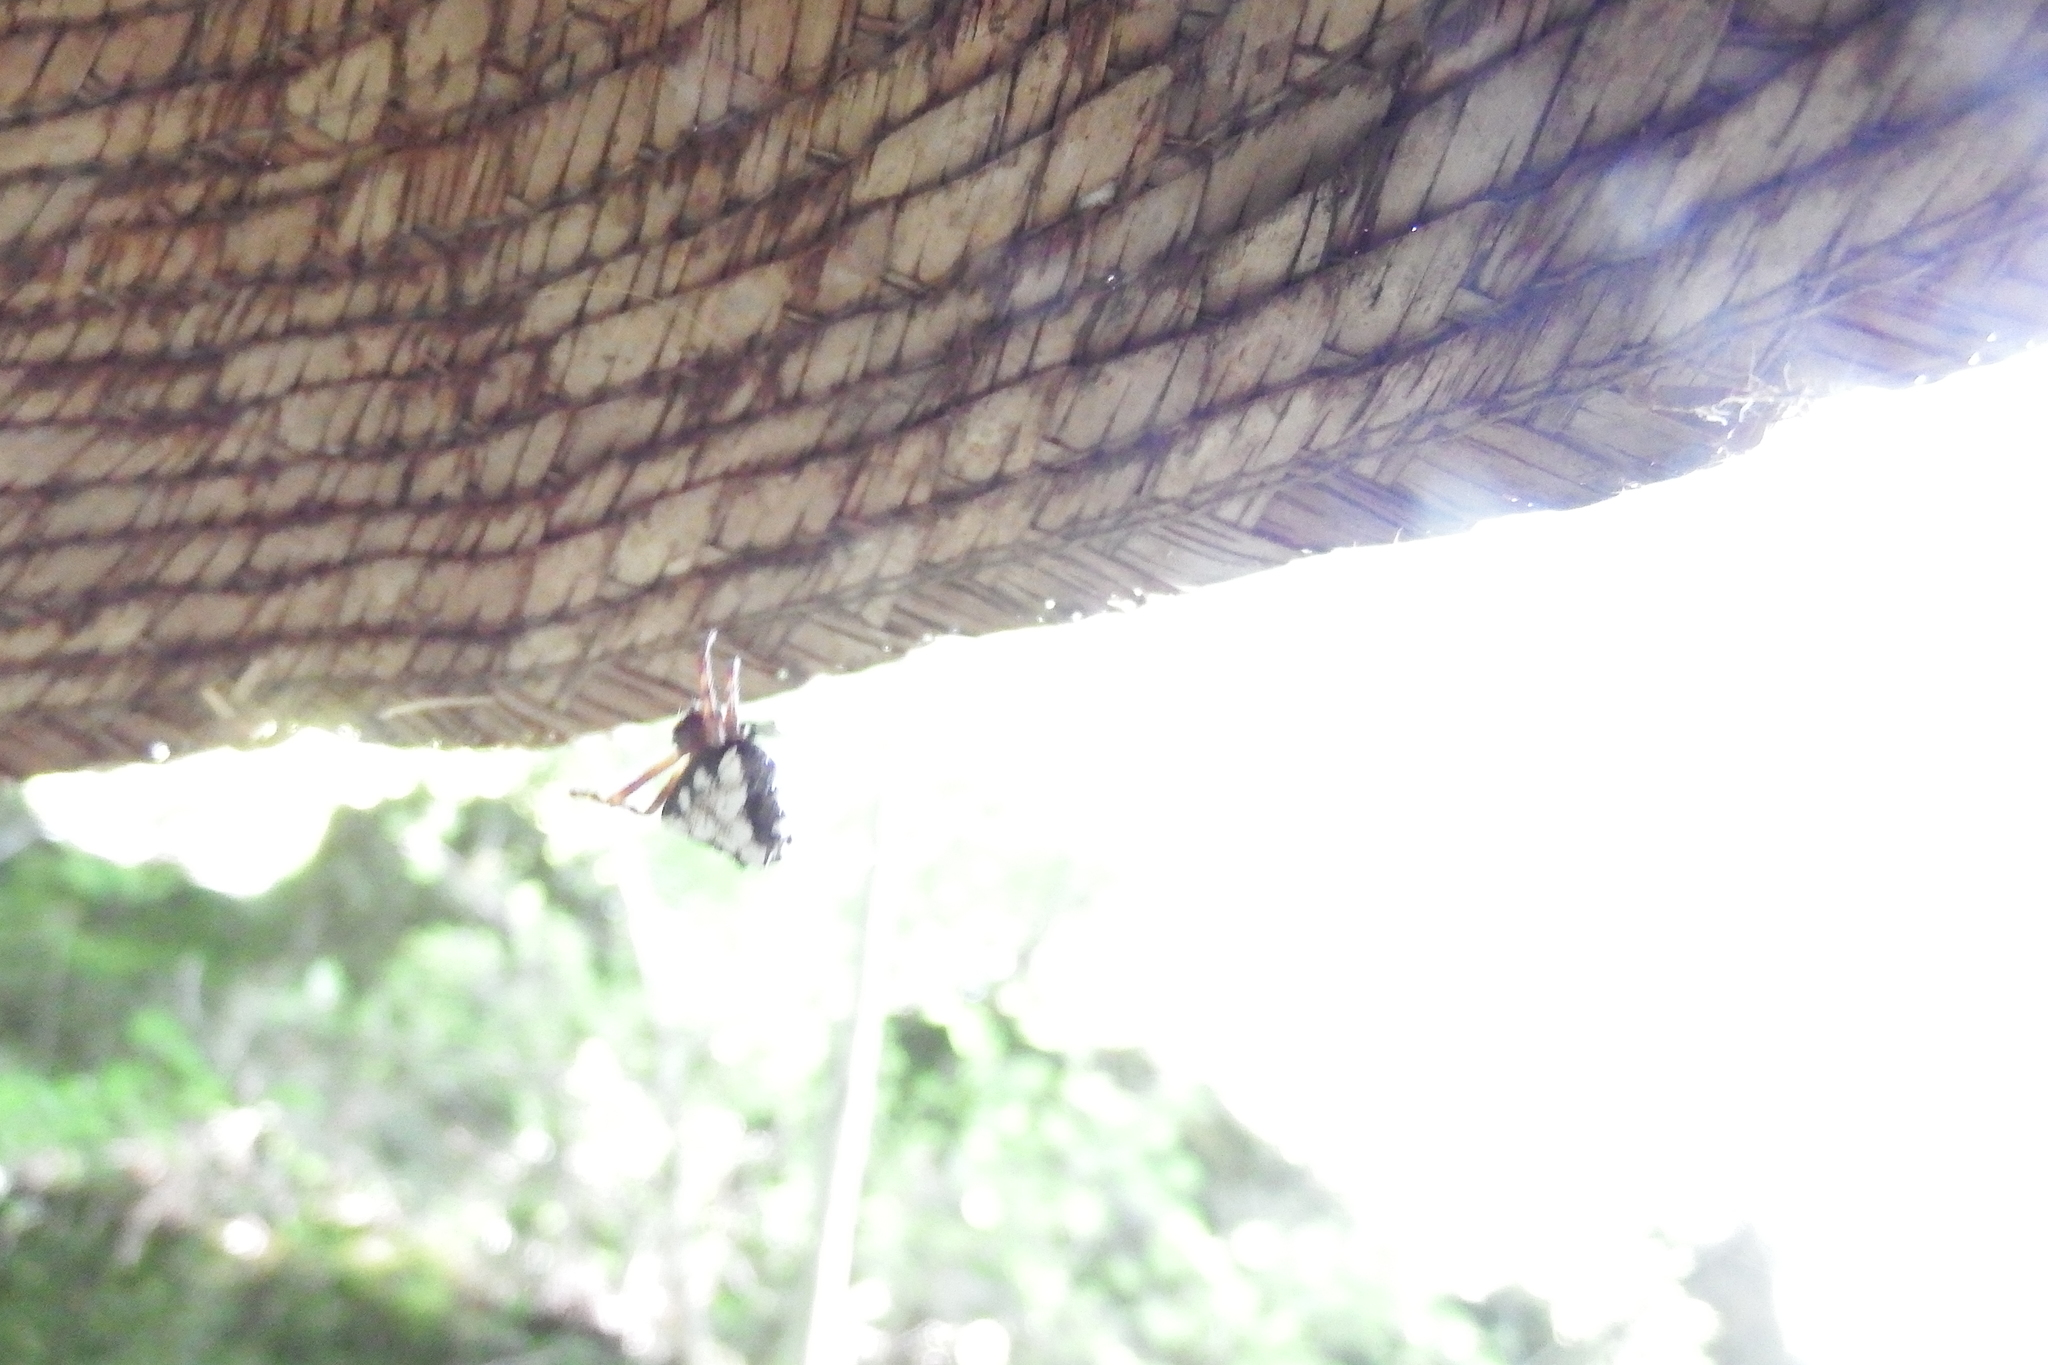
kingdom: Animalia
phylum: Arthropoda
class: Arachnida
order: Araneae
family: Araneidae
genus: Verrucosa
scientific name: Verrucosa arenata
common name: Orb weavers
